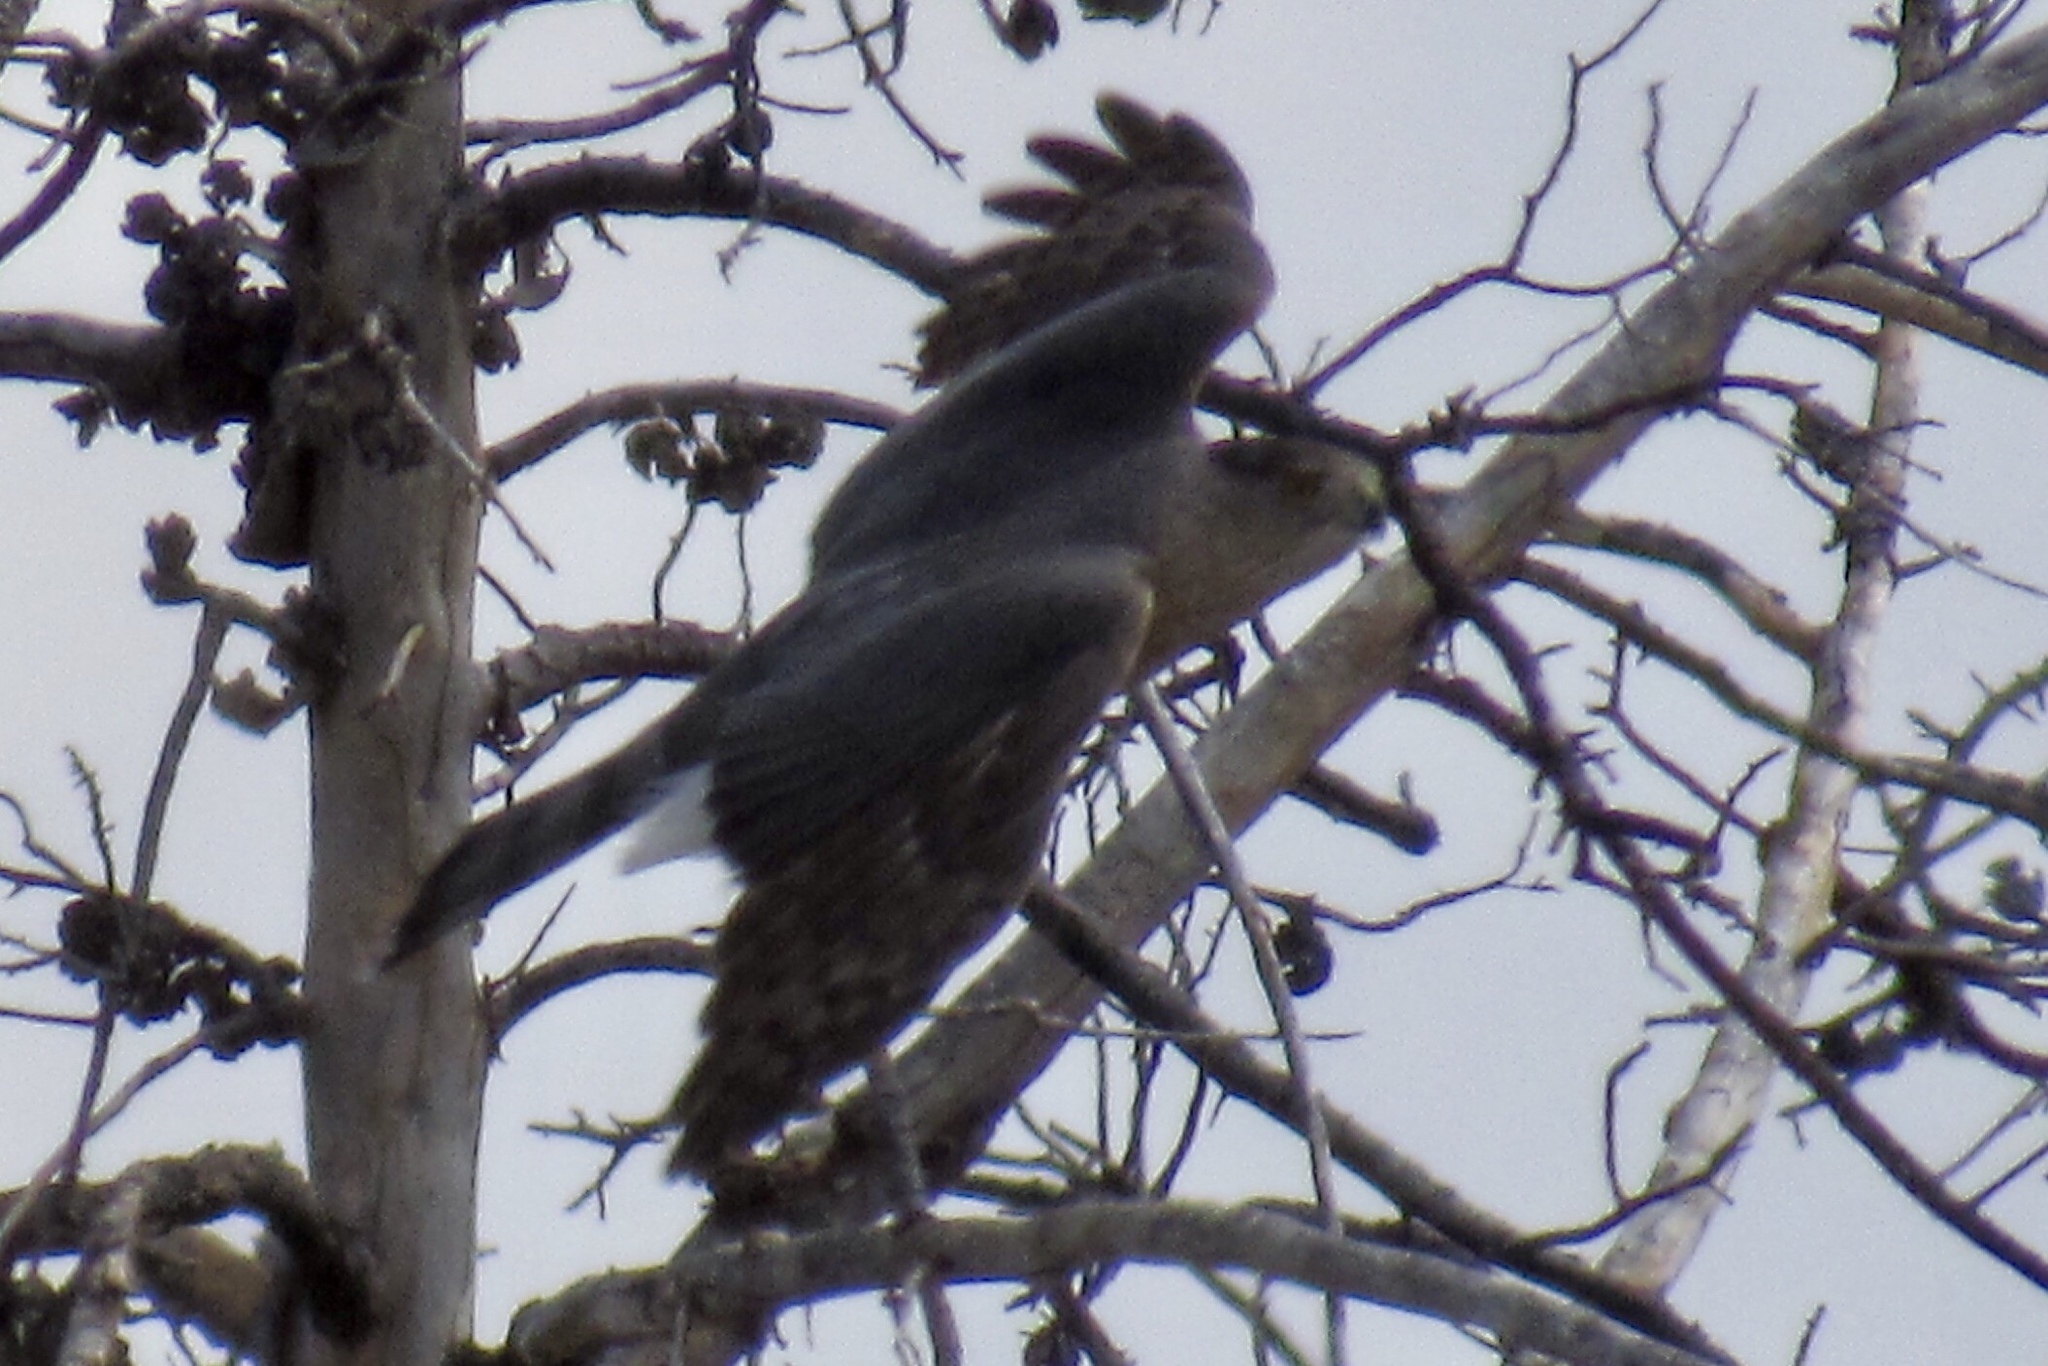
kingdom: Animalia
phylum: Chordata
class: Aves
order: Accipitriformes
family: Accipitridae
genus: Accipiter
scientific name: Accipiter cooperii
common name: Cooper's hawk
